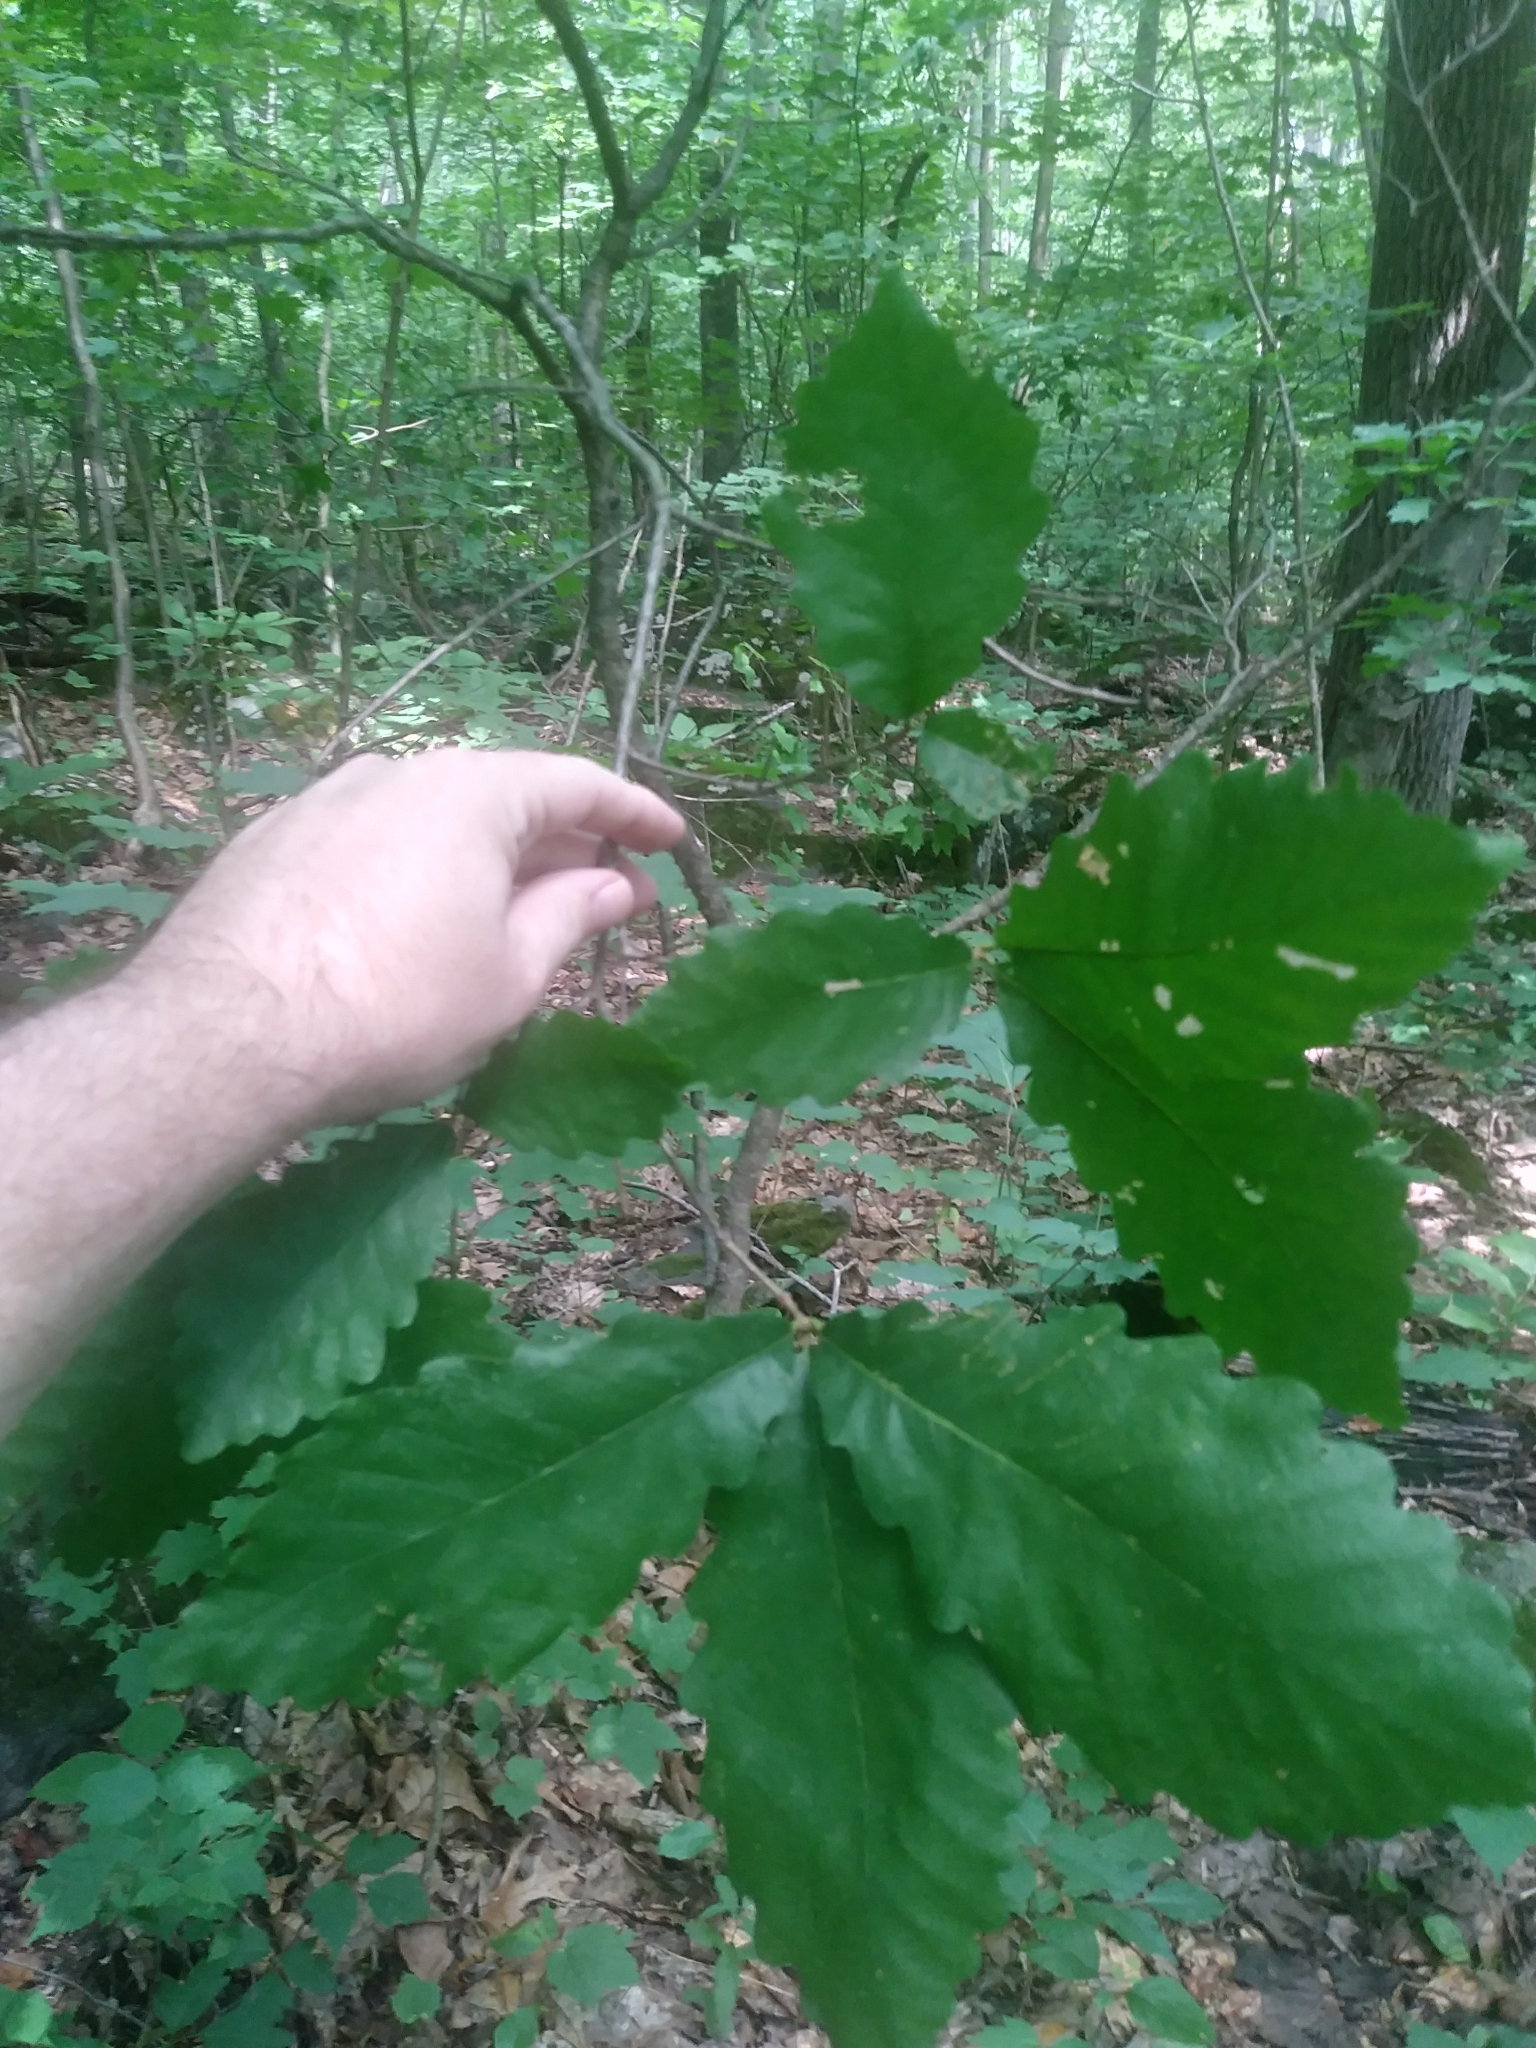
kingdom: Plantae
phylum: Tracheophyta
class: Magnoliopsida
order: Fagales
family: Fagaceae
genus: Quercus
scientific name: Quercus montana
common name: Chestnut oak
